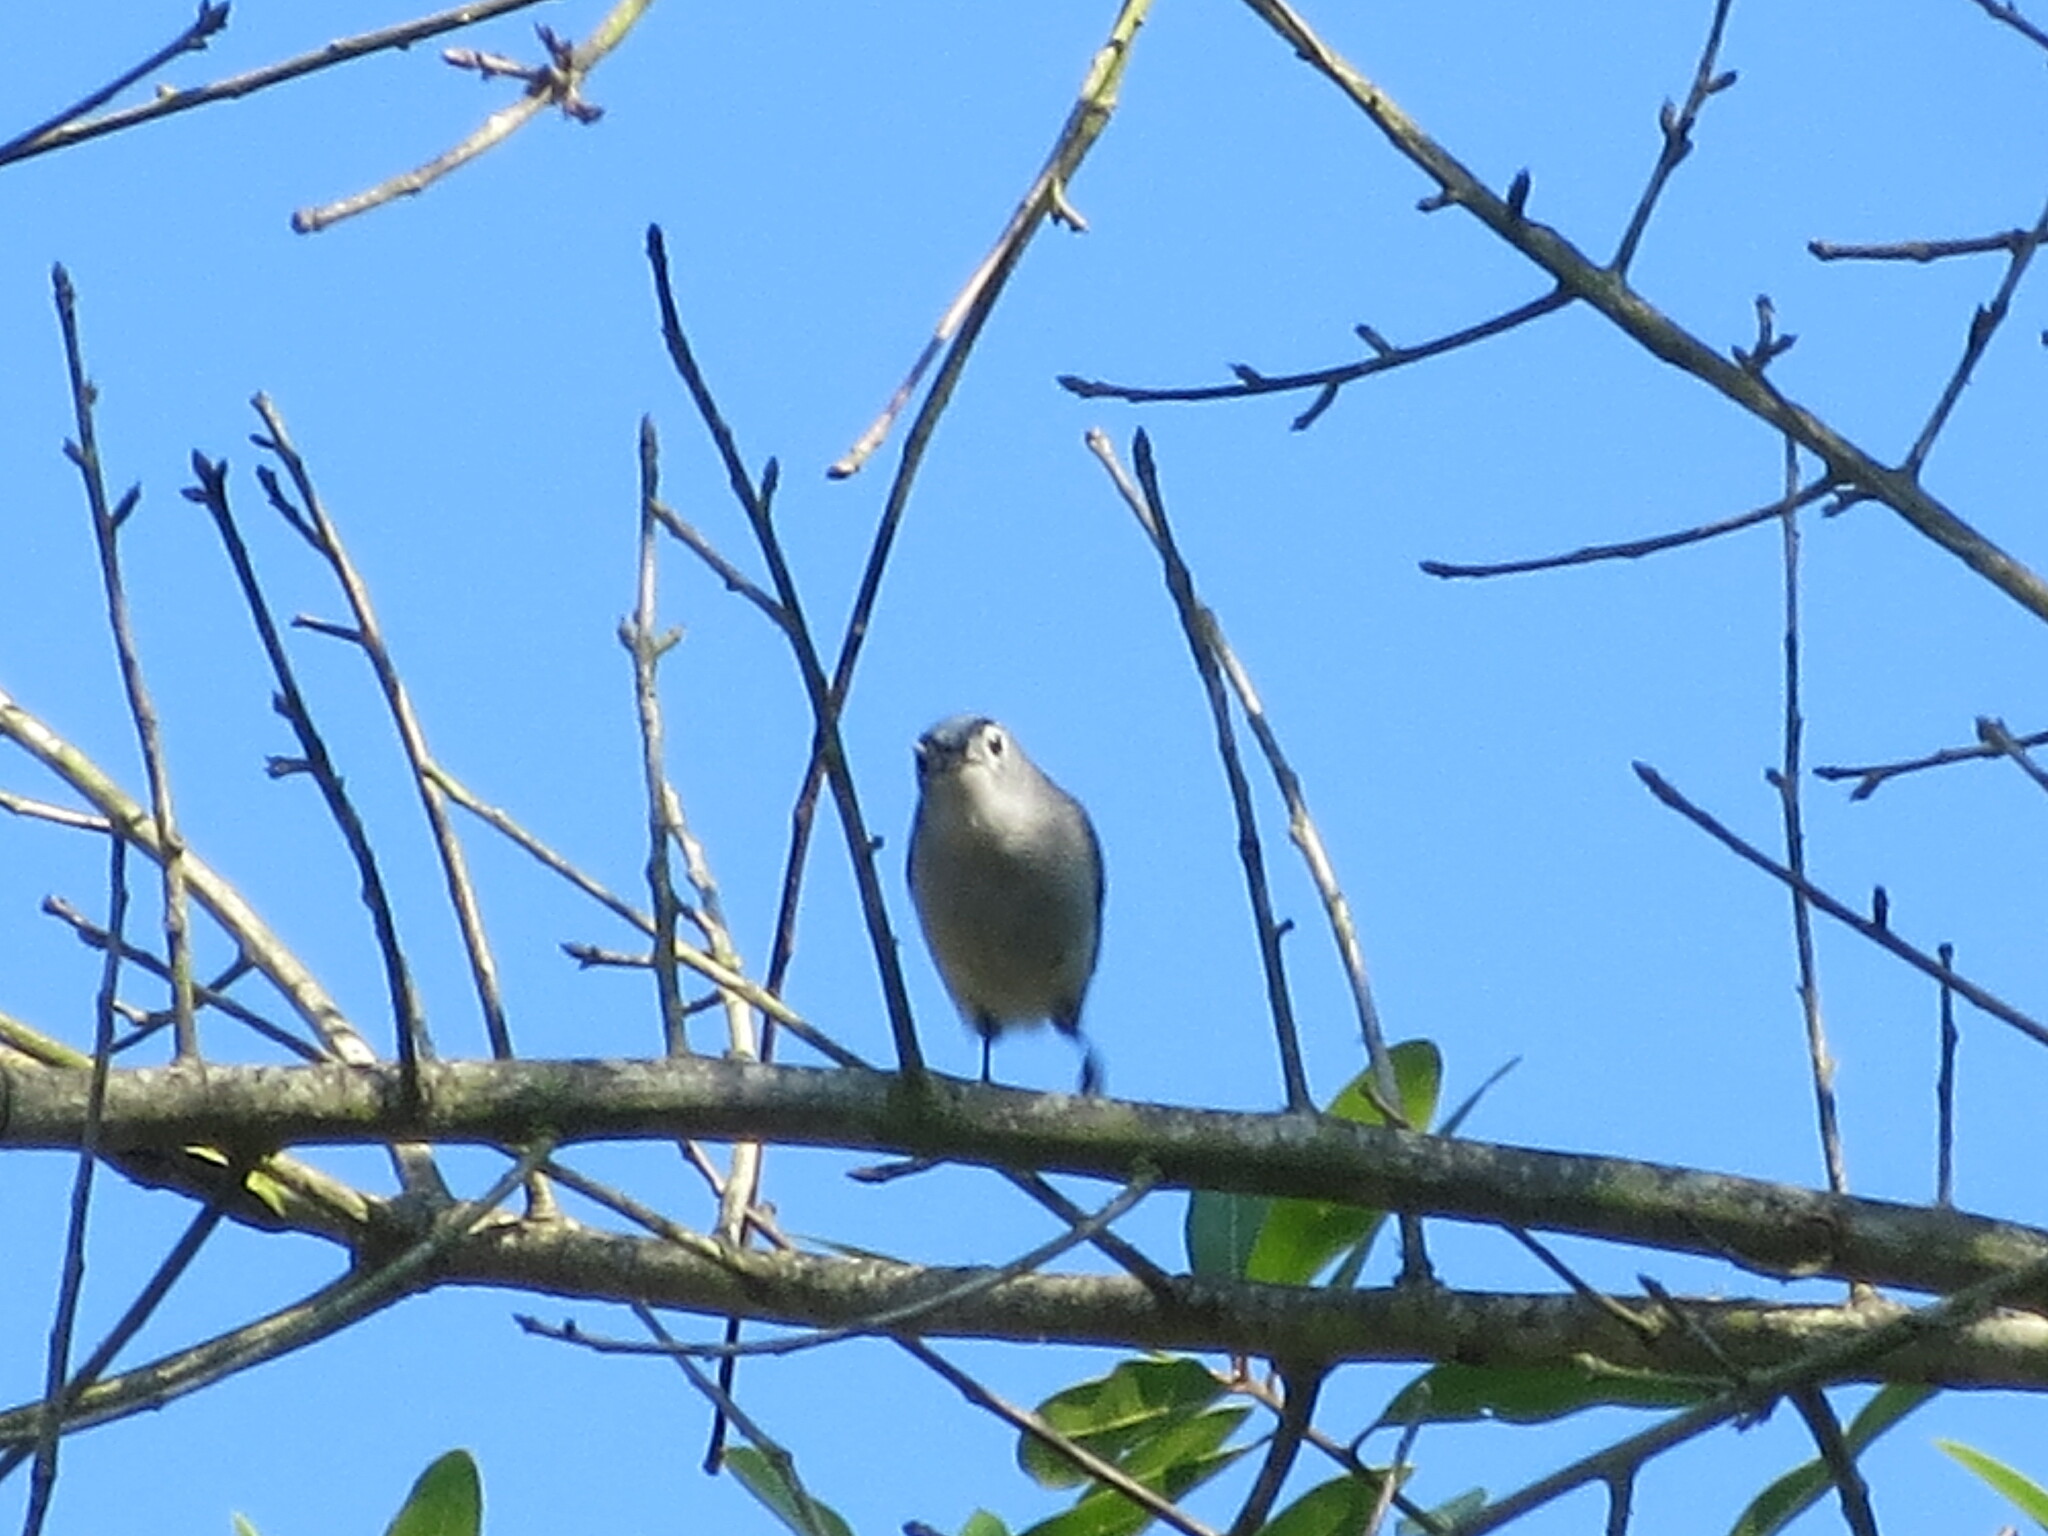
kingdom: Animalia
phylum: Chordata
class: Aves
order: Passeriformes
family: Polioptilidae
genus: Polioptila
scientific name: Polioptila caerulea
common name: Blue-gray gnatcatcher
